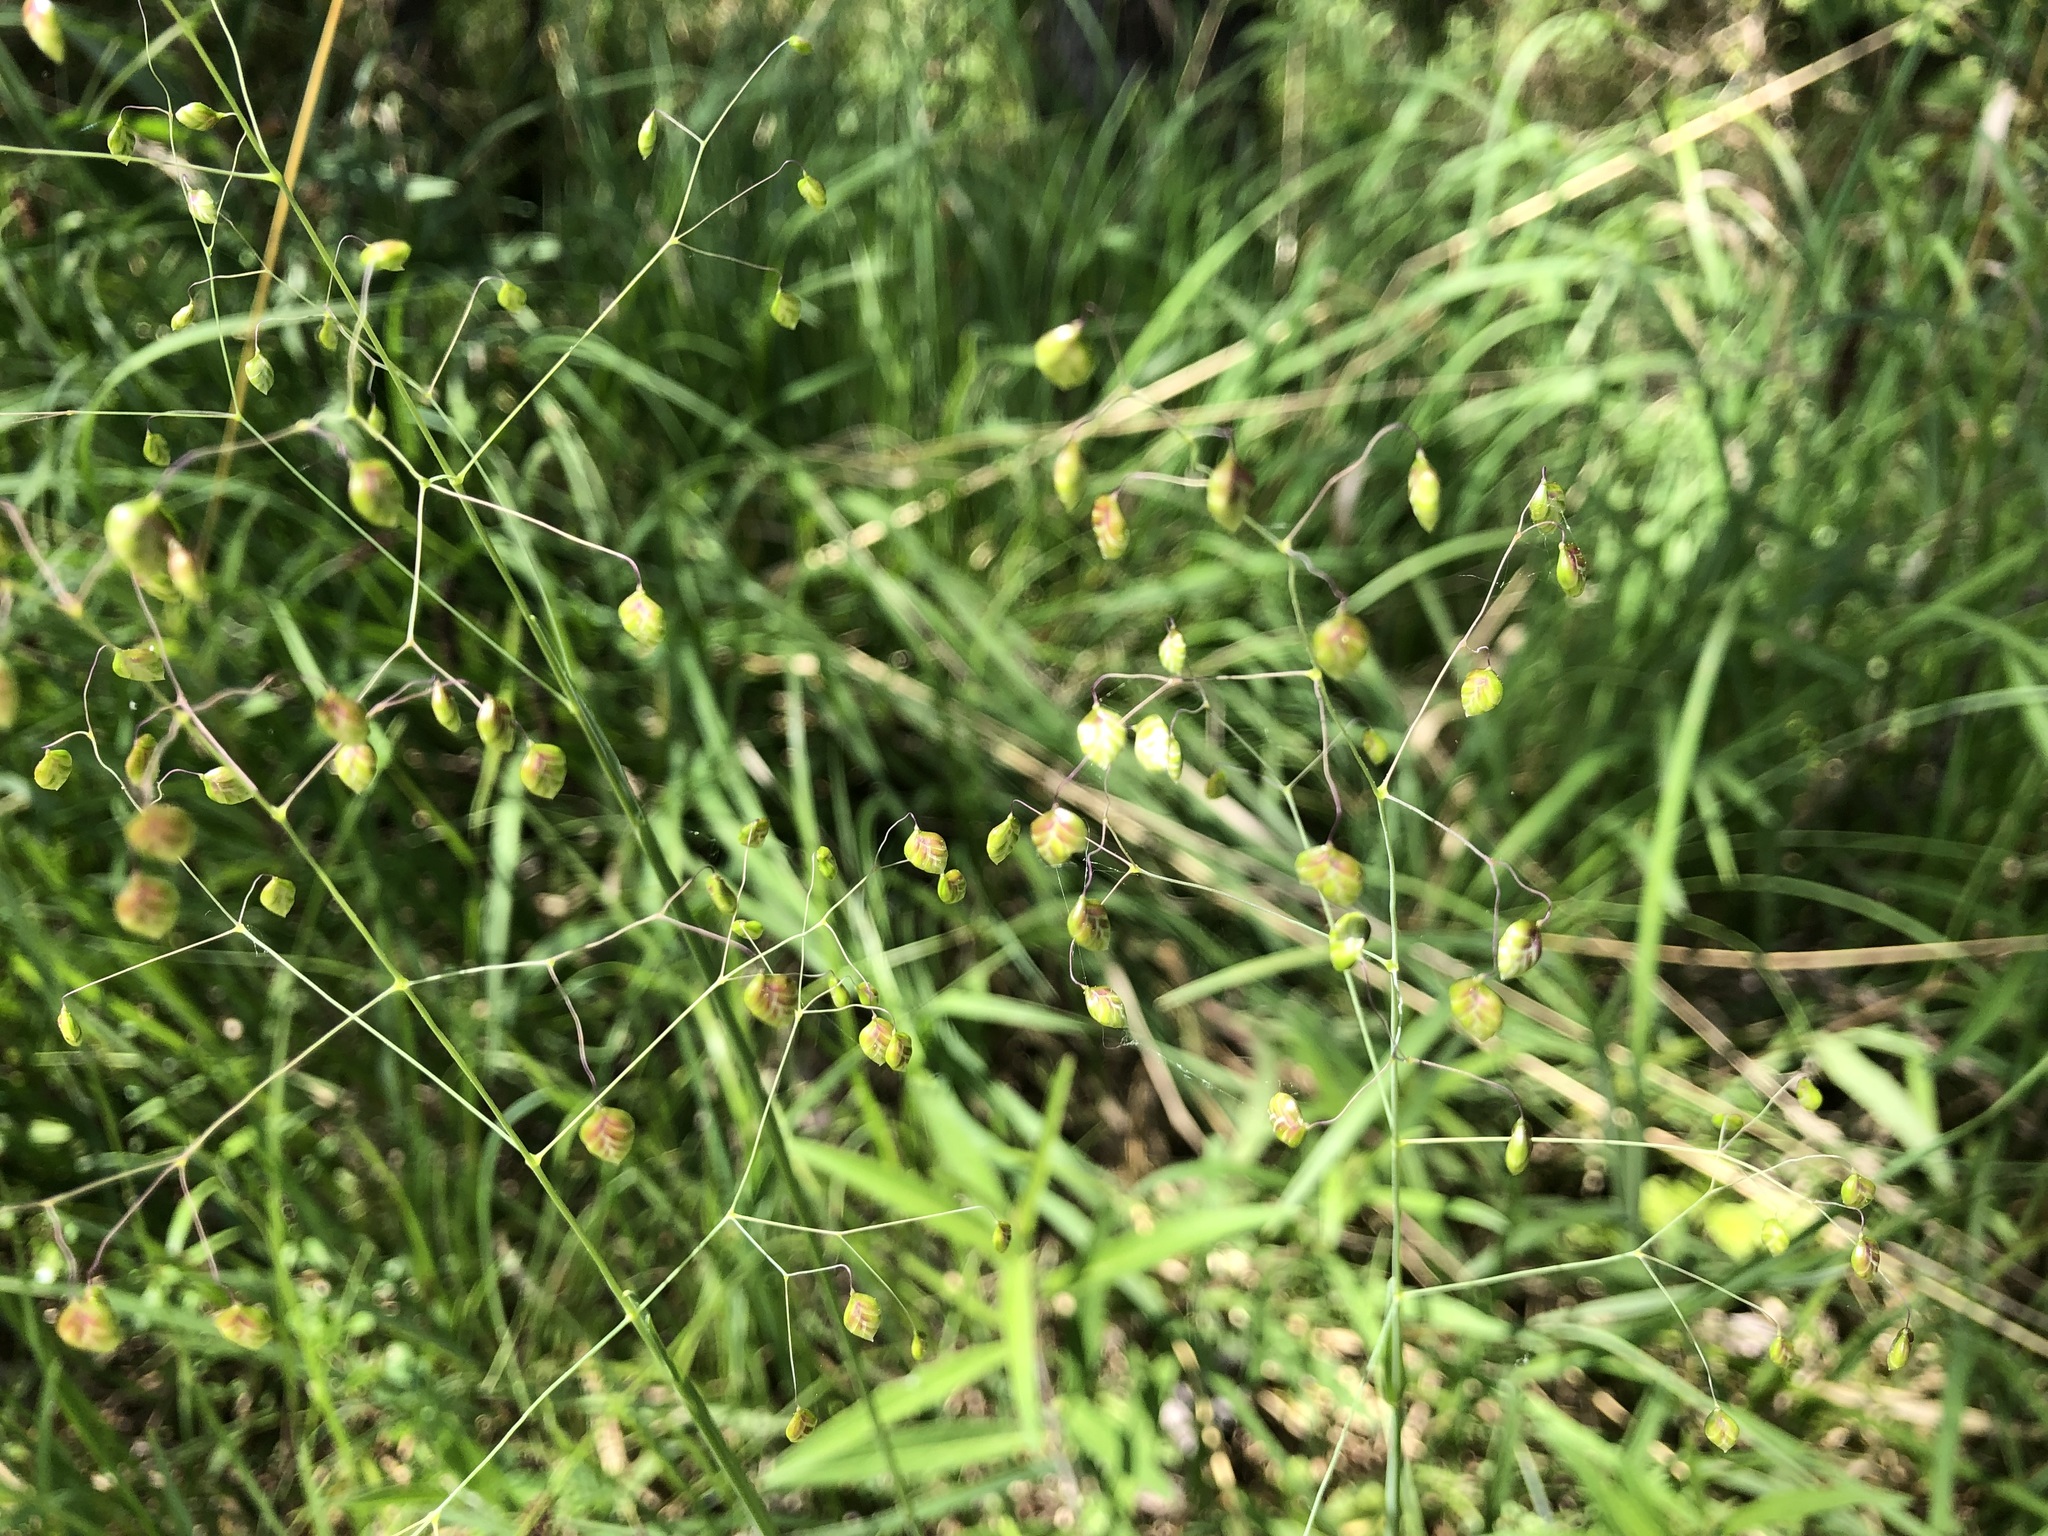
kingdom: Plantae
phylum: Tracheophyta
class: Liliopsida
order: Poales
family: Poaceae
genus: Briza
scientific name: Briza media
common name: Quaking grass
